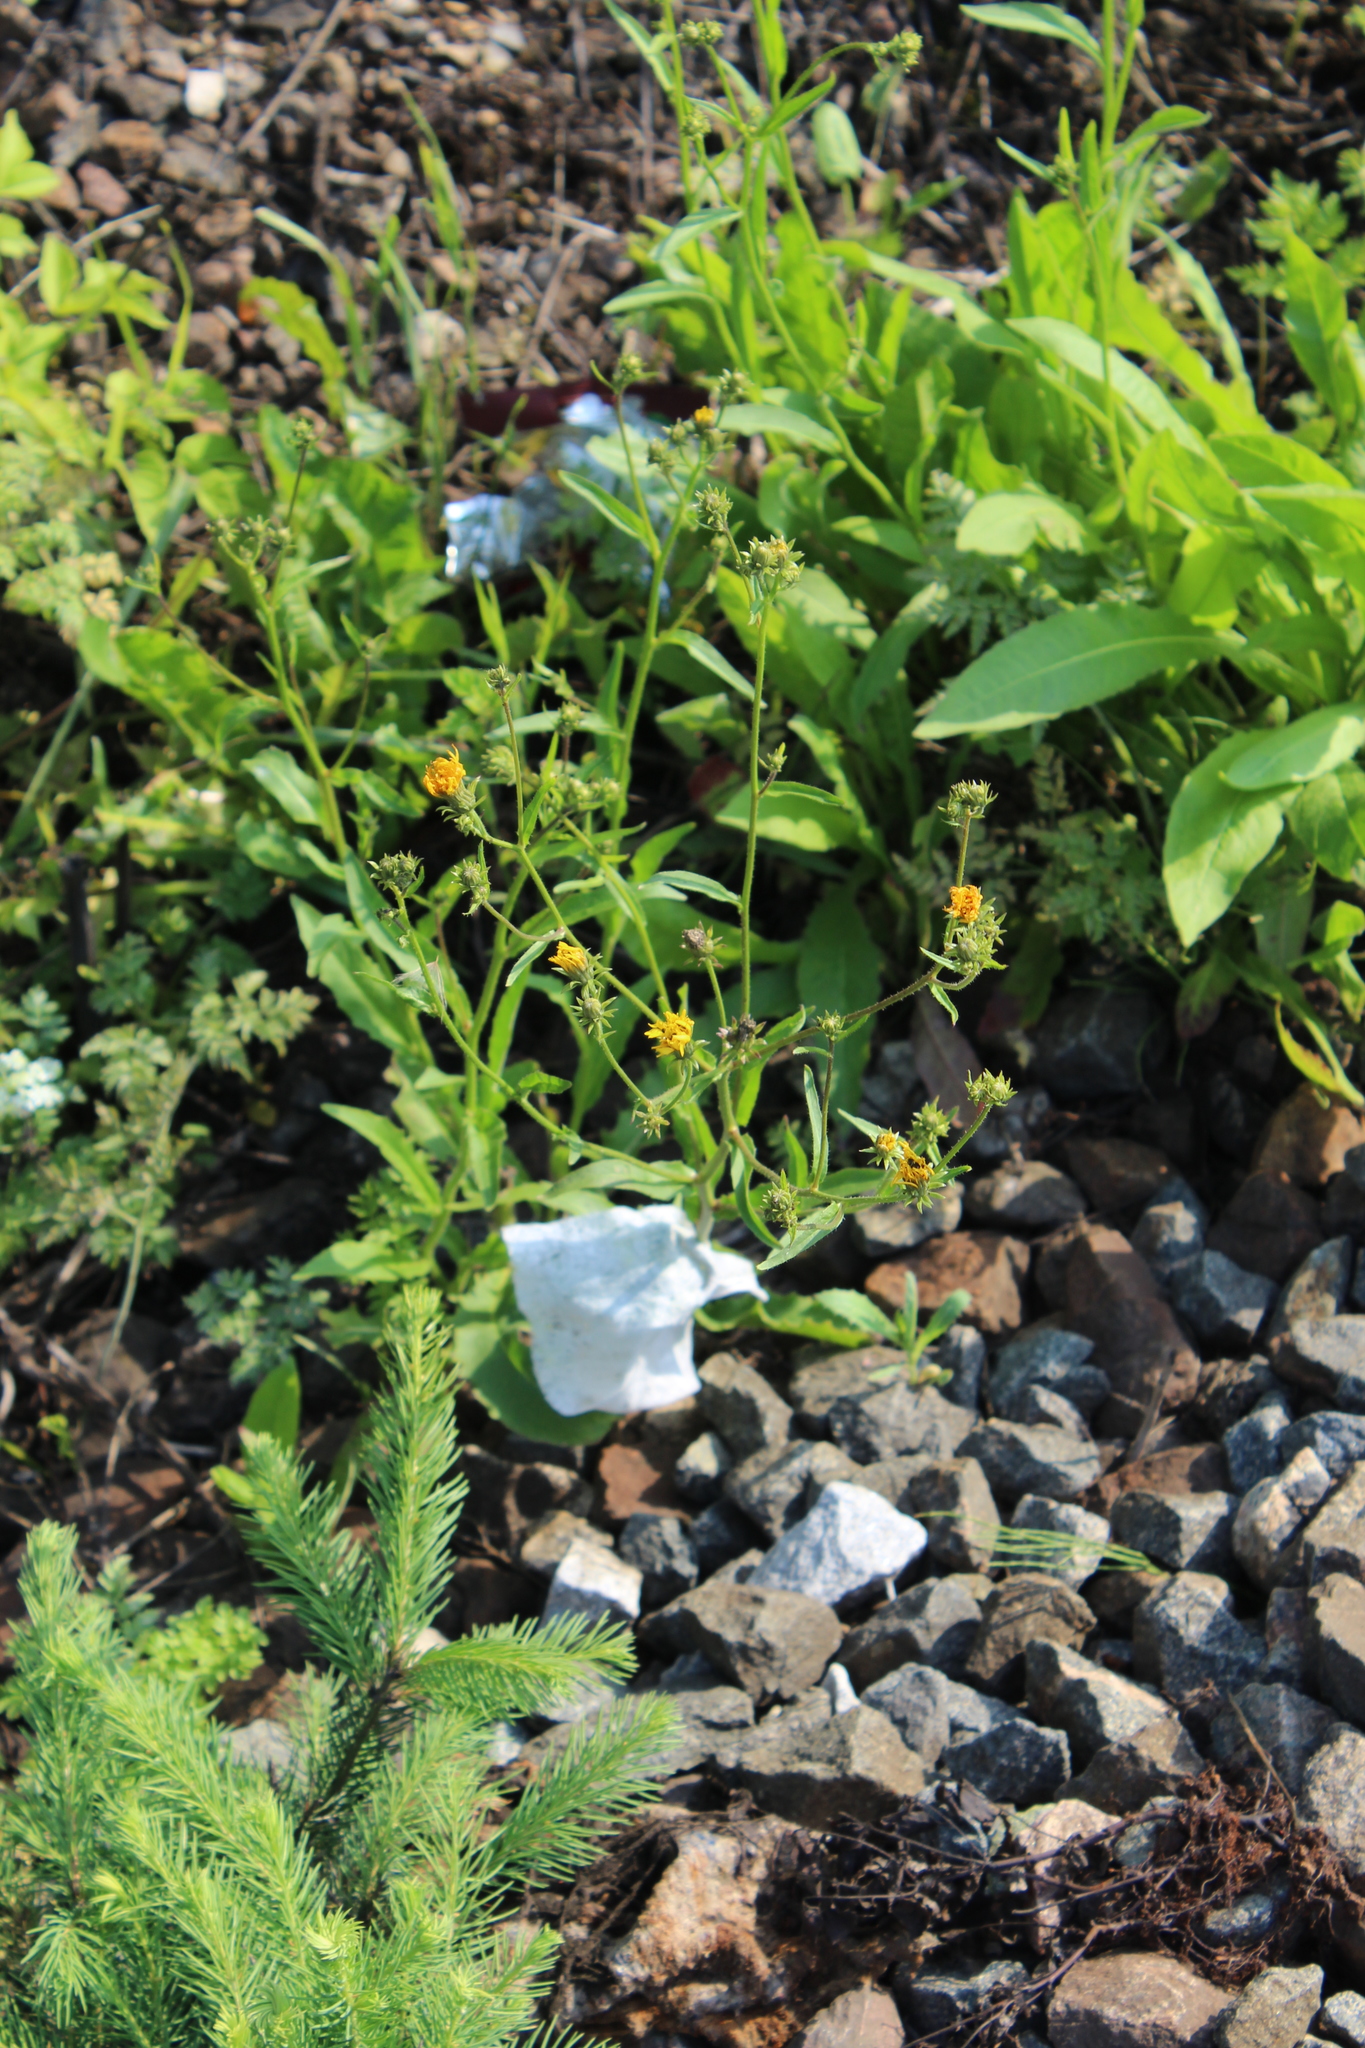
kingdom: Plantae
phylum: Tracheophyta
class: Magnoliopsida
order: Asterales
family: Asteraceae
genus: Picris
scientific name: Picris hieracioides
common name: Hawkweed oxtongue
